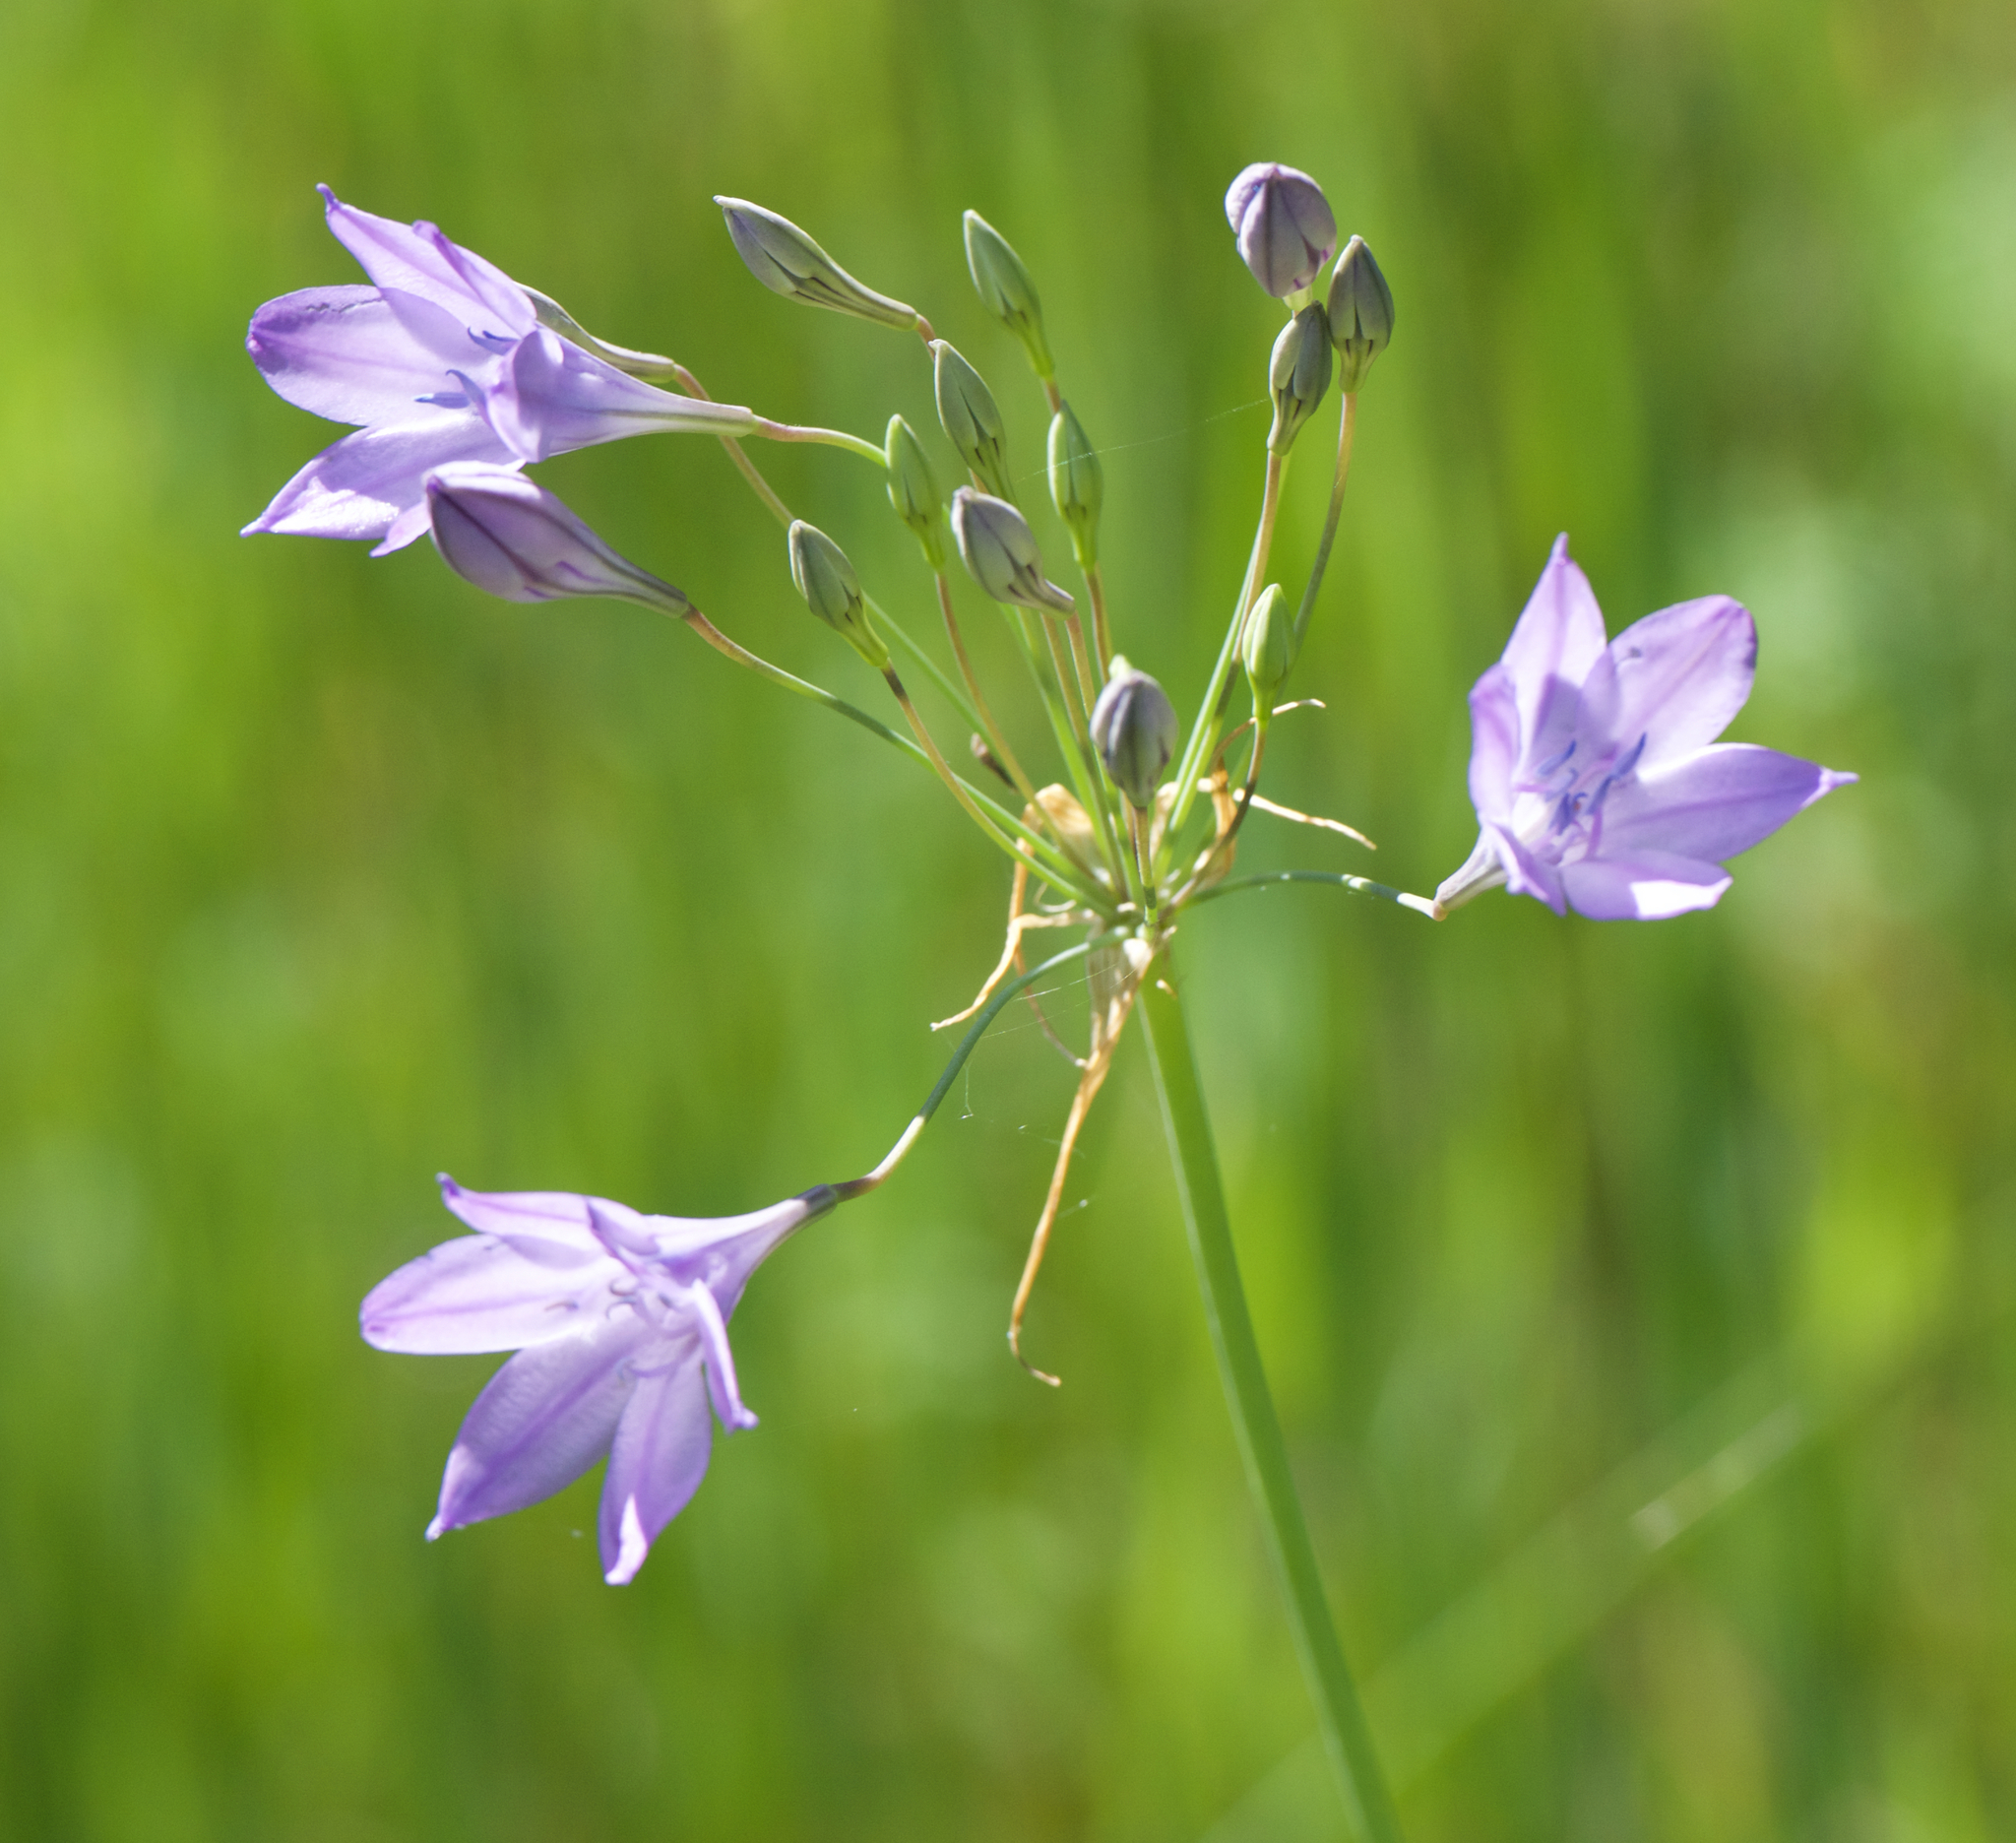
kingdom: Plantae
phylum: Tracheophyta
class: Liliopsida
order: Asparagales
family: Asparagaceae
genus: Triteleia
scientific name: Triteleia laxa
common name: Triplet-lily
